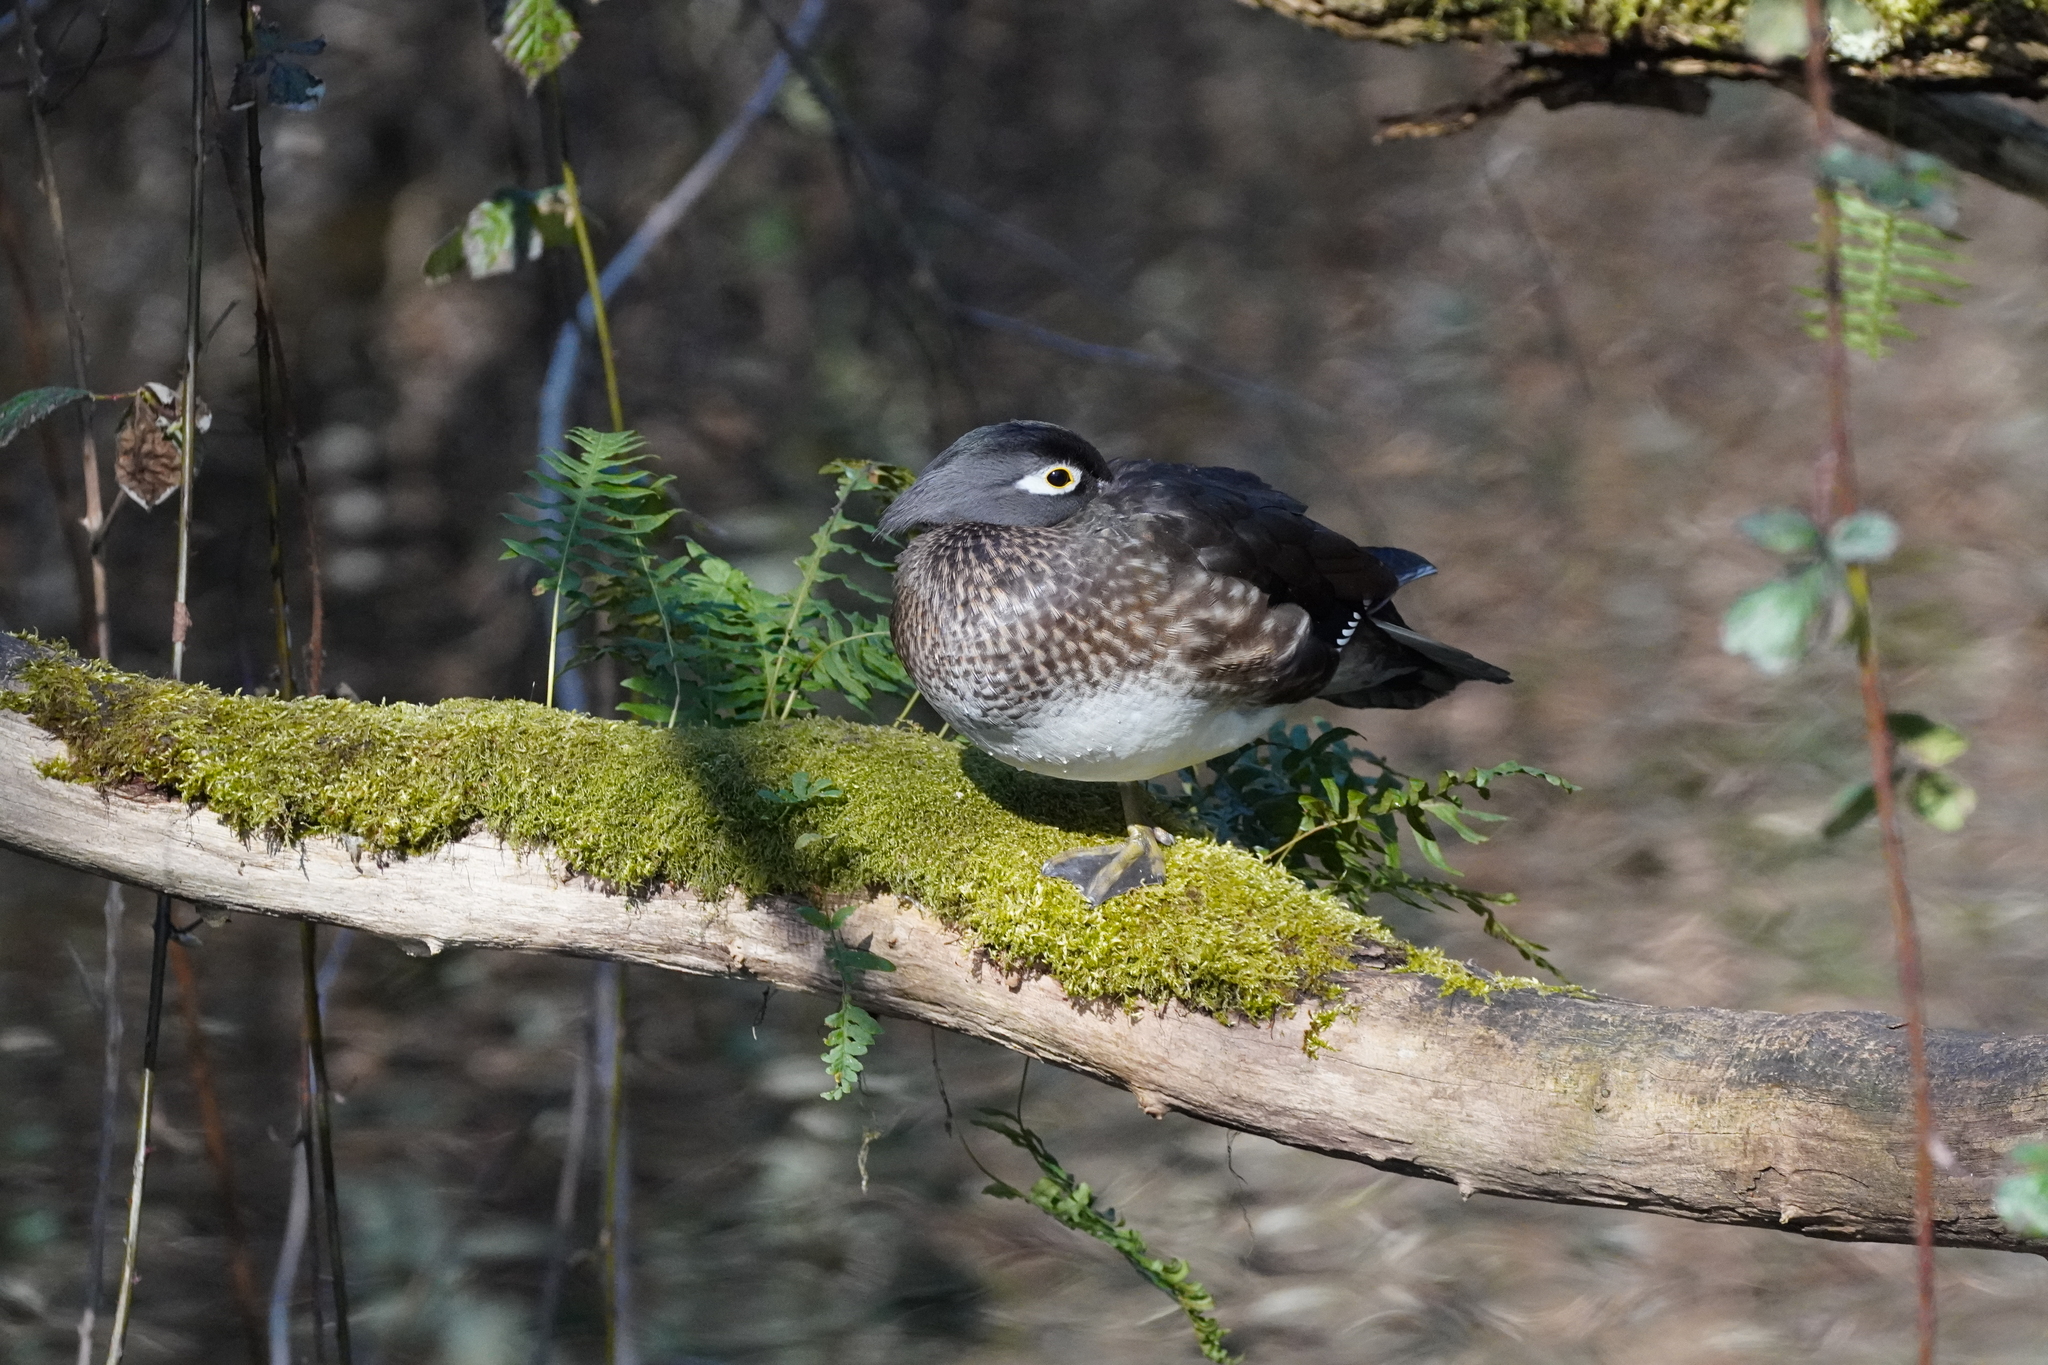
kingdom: Animalia
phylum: Chordata
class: Aves
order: Anseriformes
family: Anatidae
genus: Aix
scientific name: Aix sponsa
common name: Wood duck
